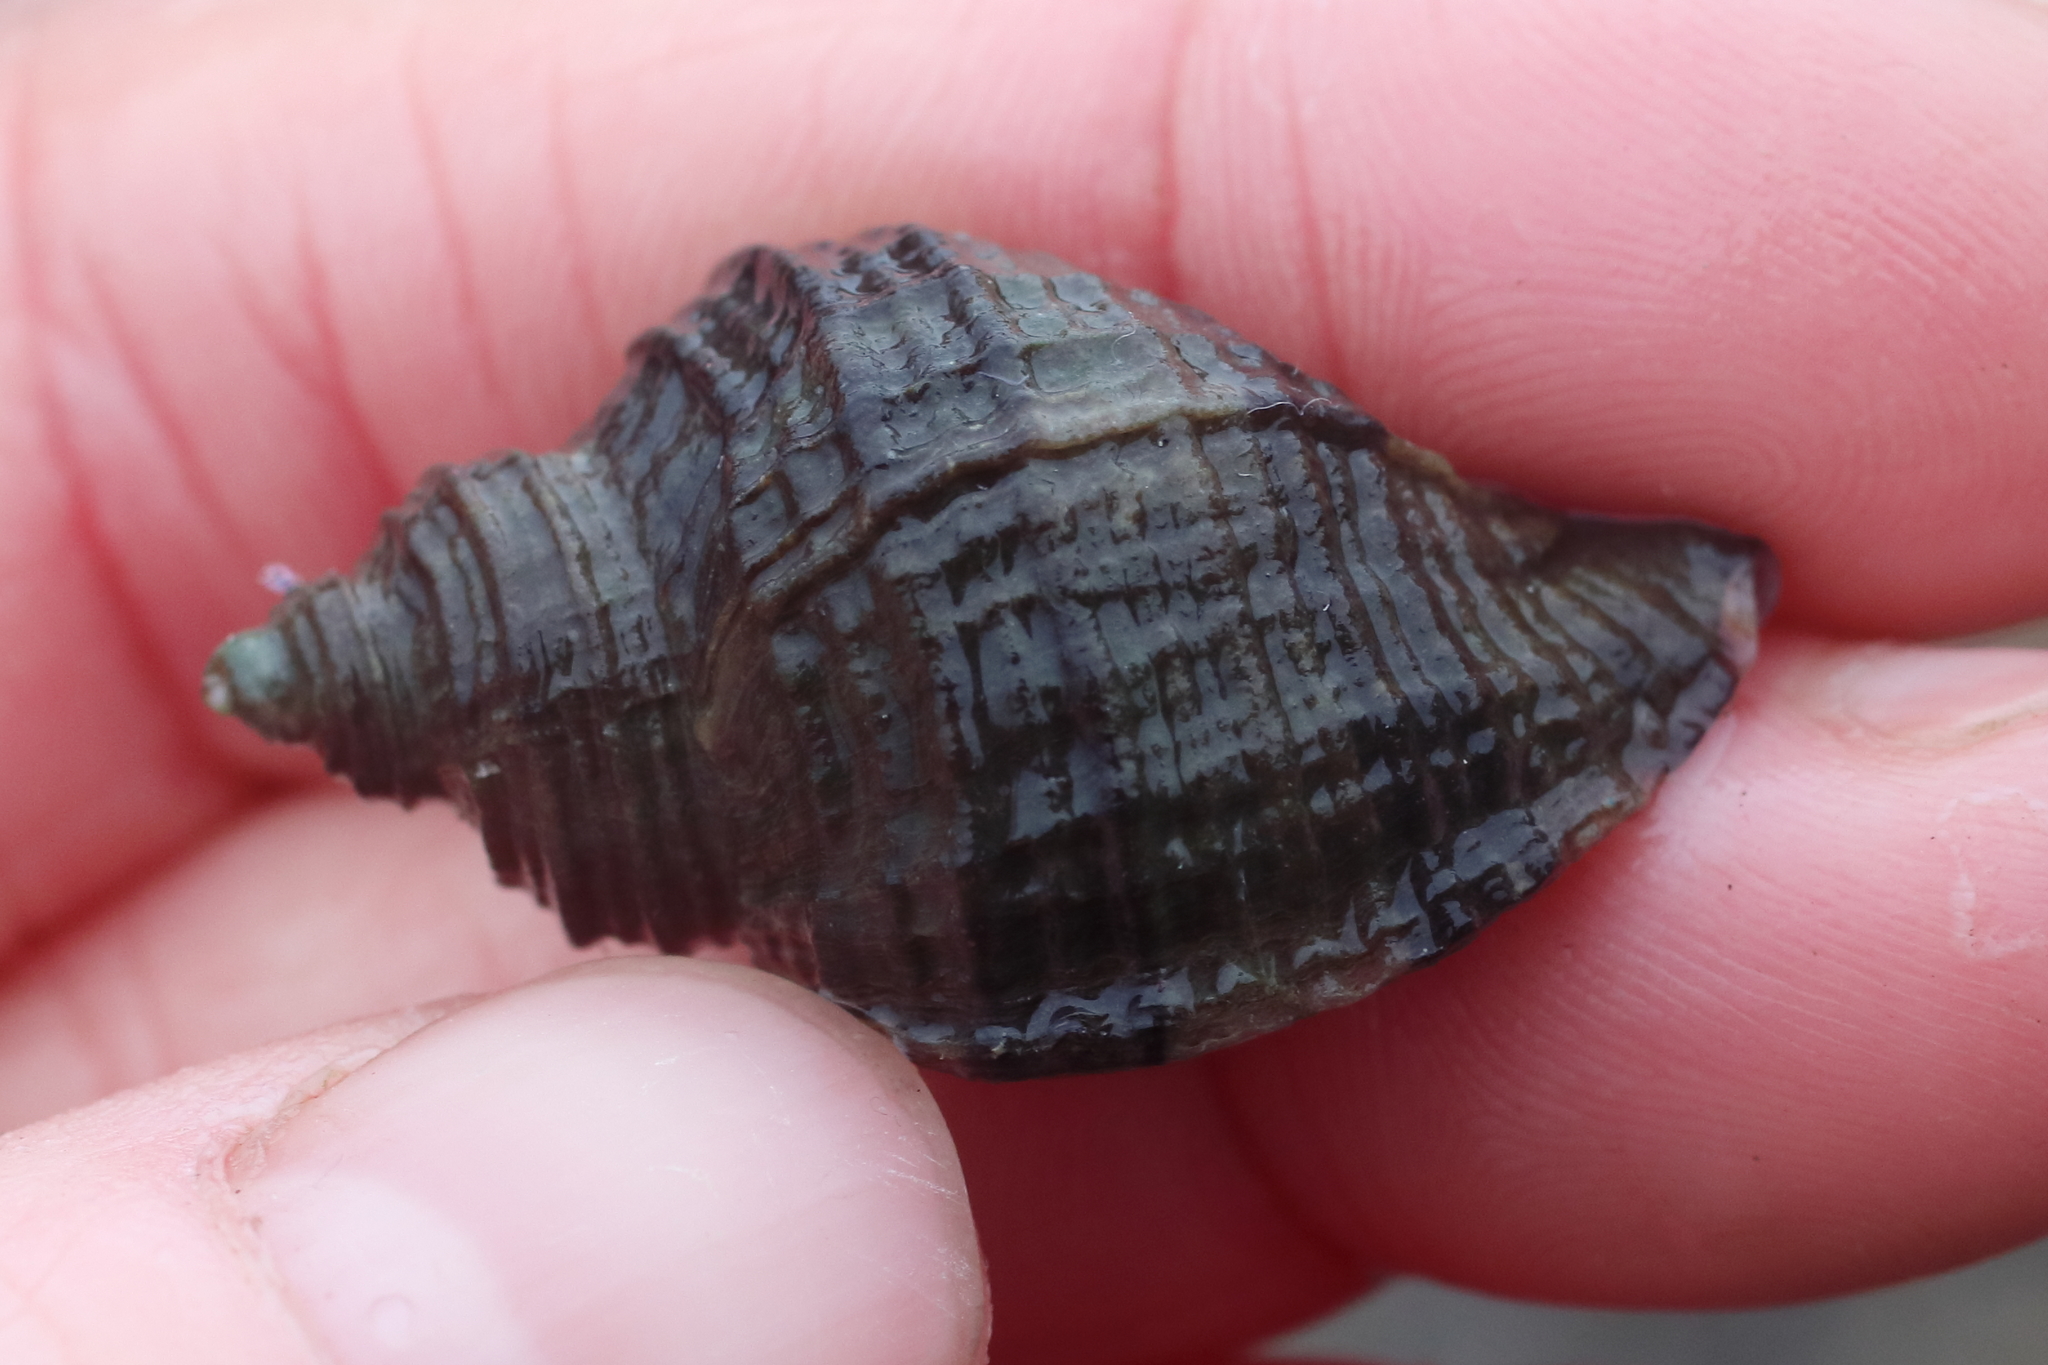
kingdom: Animalia
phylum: Mollusca
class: Gastropoda
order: Neogastropoda
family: Muricidae
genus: Nucella
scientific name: Nucella lima
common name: Rough purple
